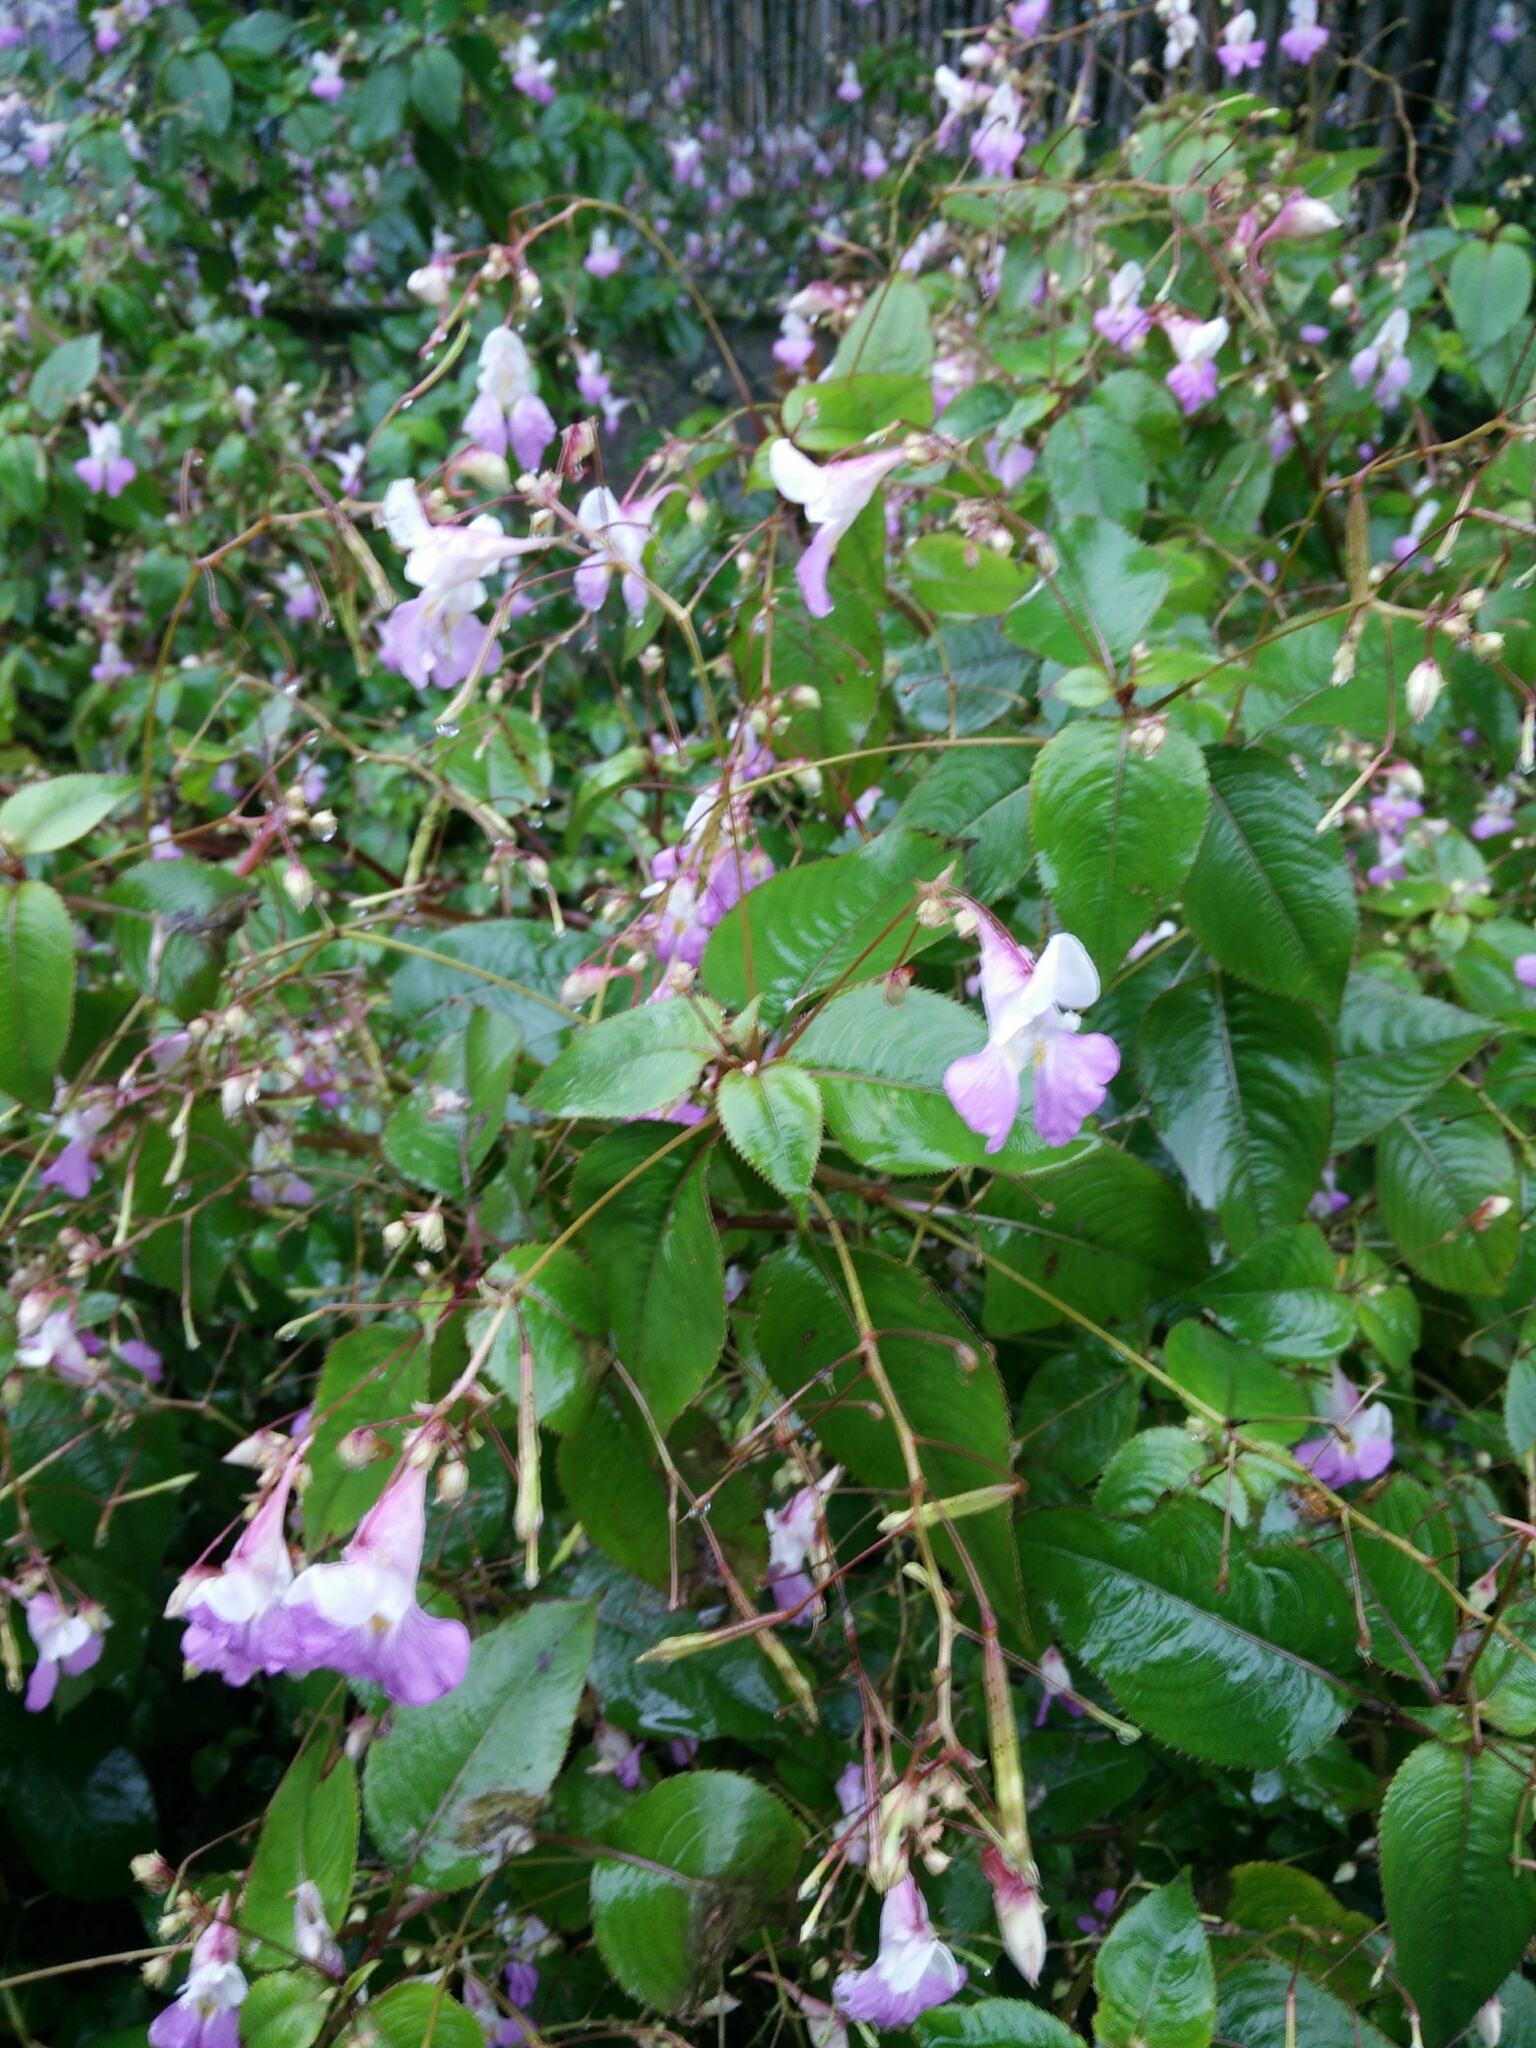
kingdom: Plantae
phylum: Tracheophyta
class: Magnoliopsida
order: Ericales
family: Balsaminaceae
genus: Impatiens
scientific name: Impatiens balfourii
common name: Balfour's touch-me-not
